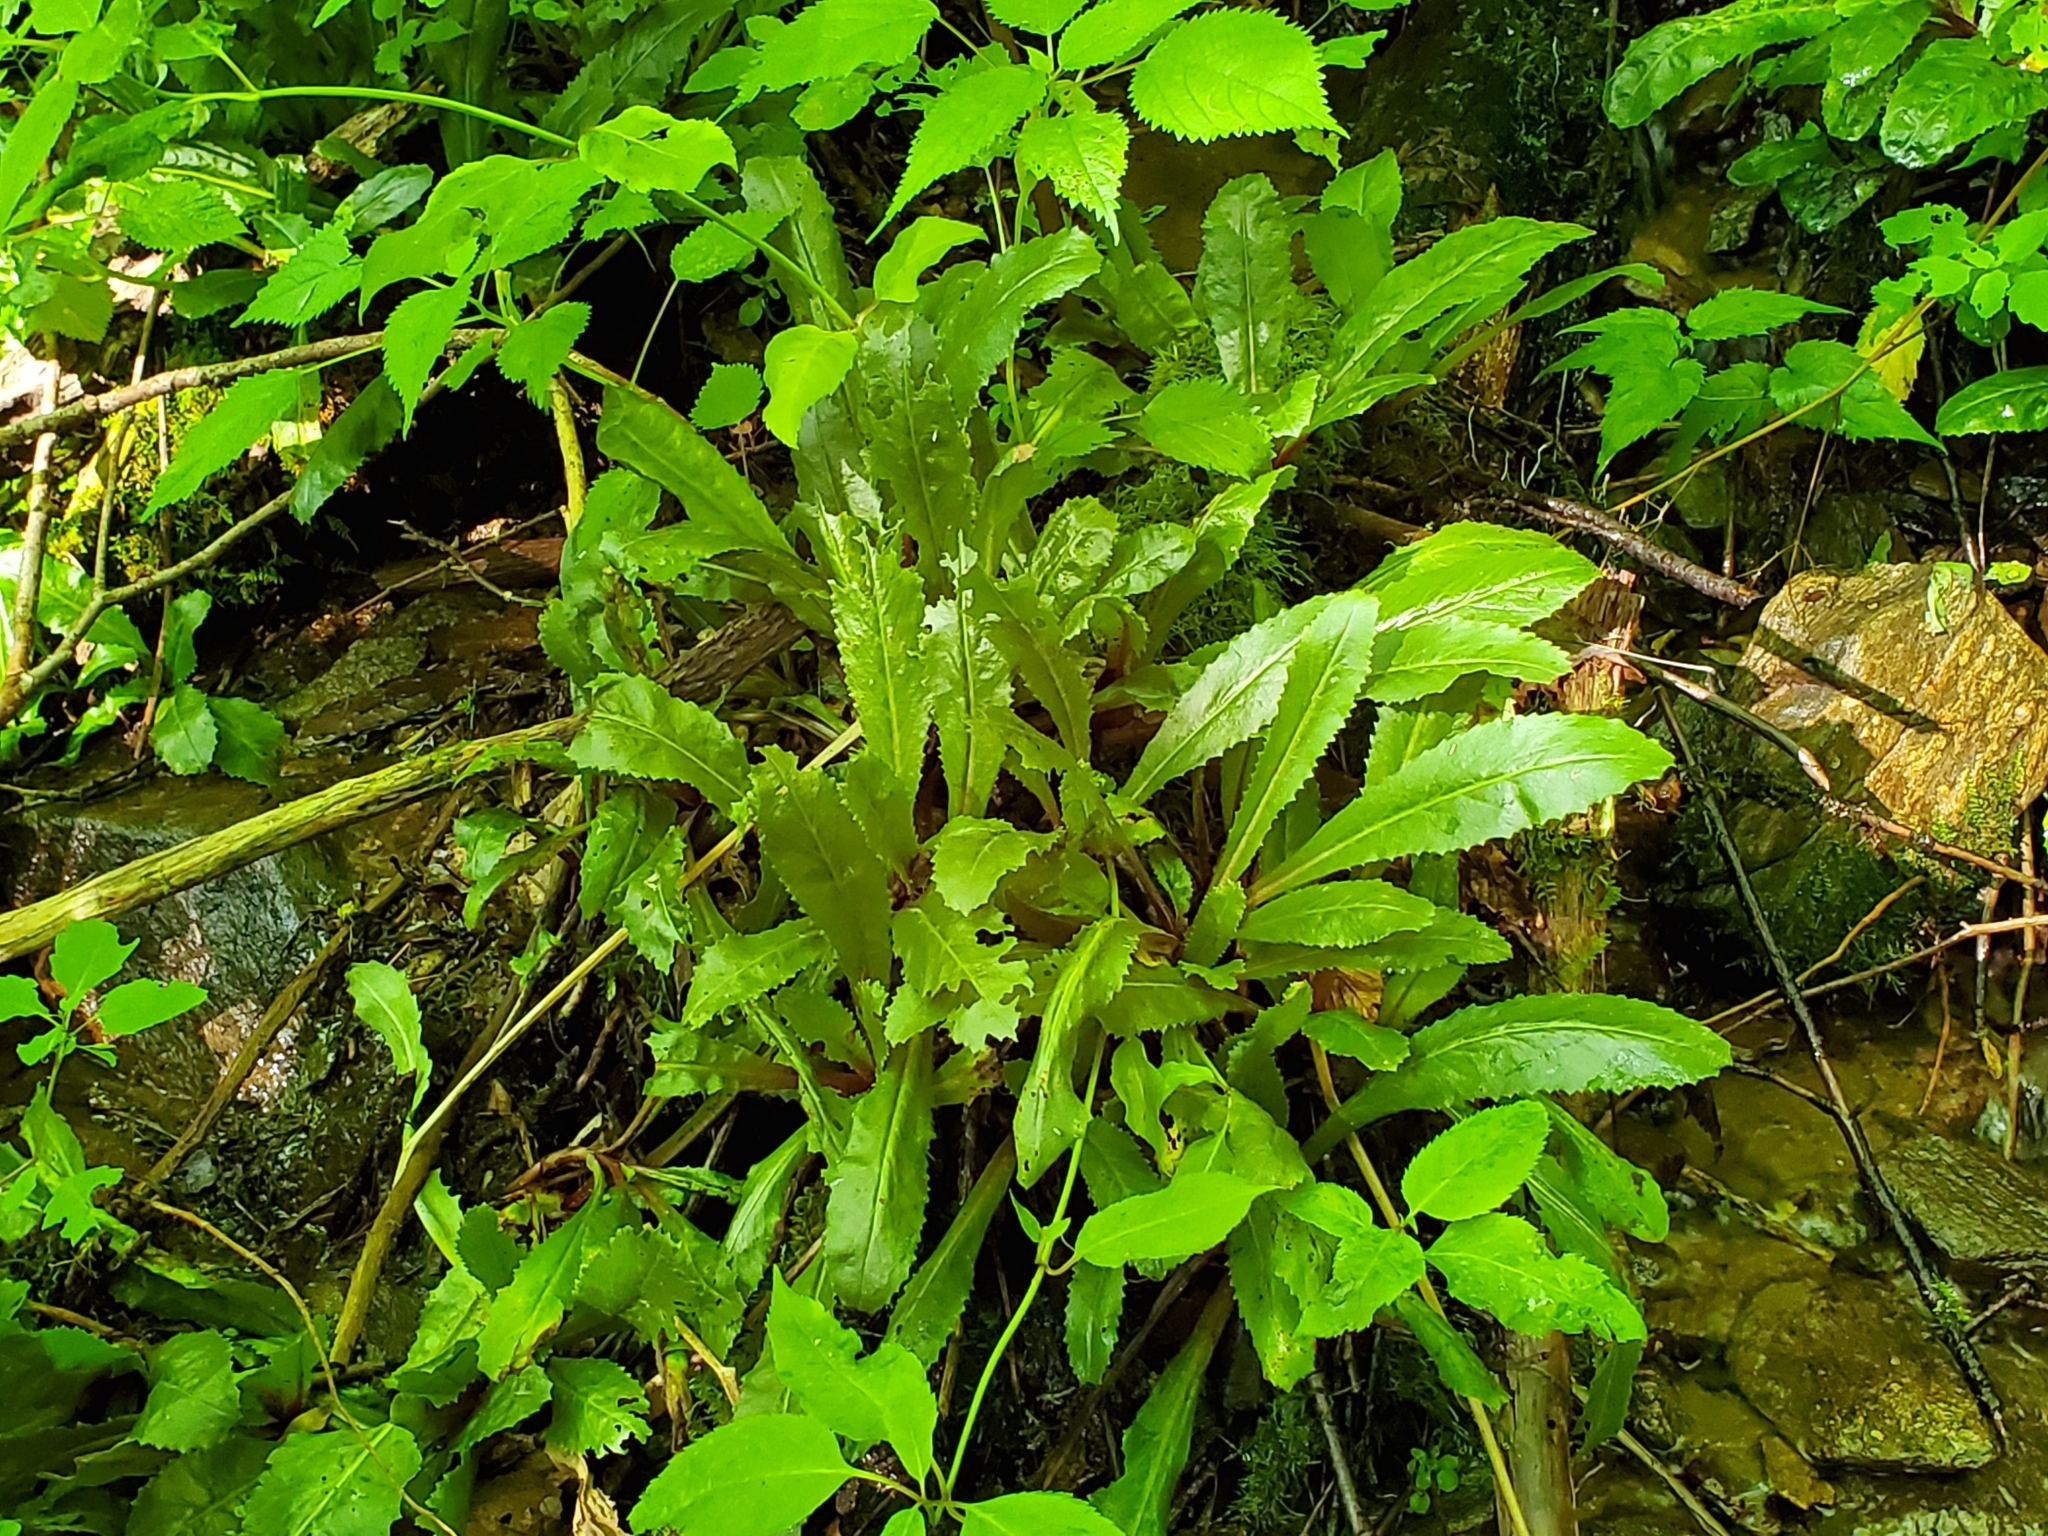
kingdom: Plantae
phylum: Tracheophyta
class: Magnoliopsida
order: Saxifragales
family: Saxifragaceae
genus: Micranthes
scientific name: Micranthes micranthidifolia
